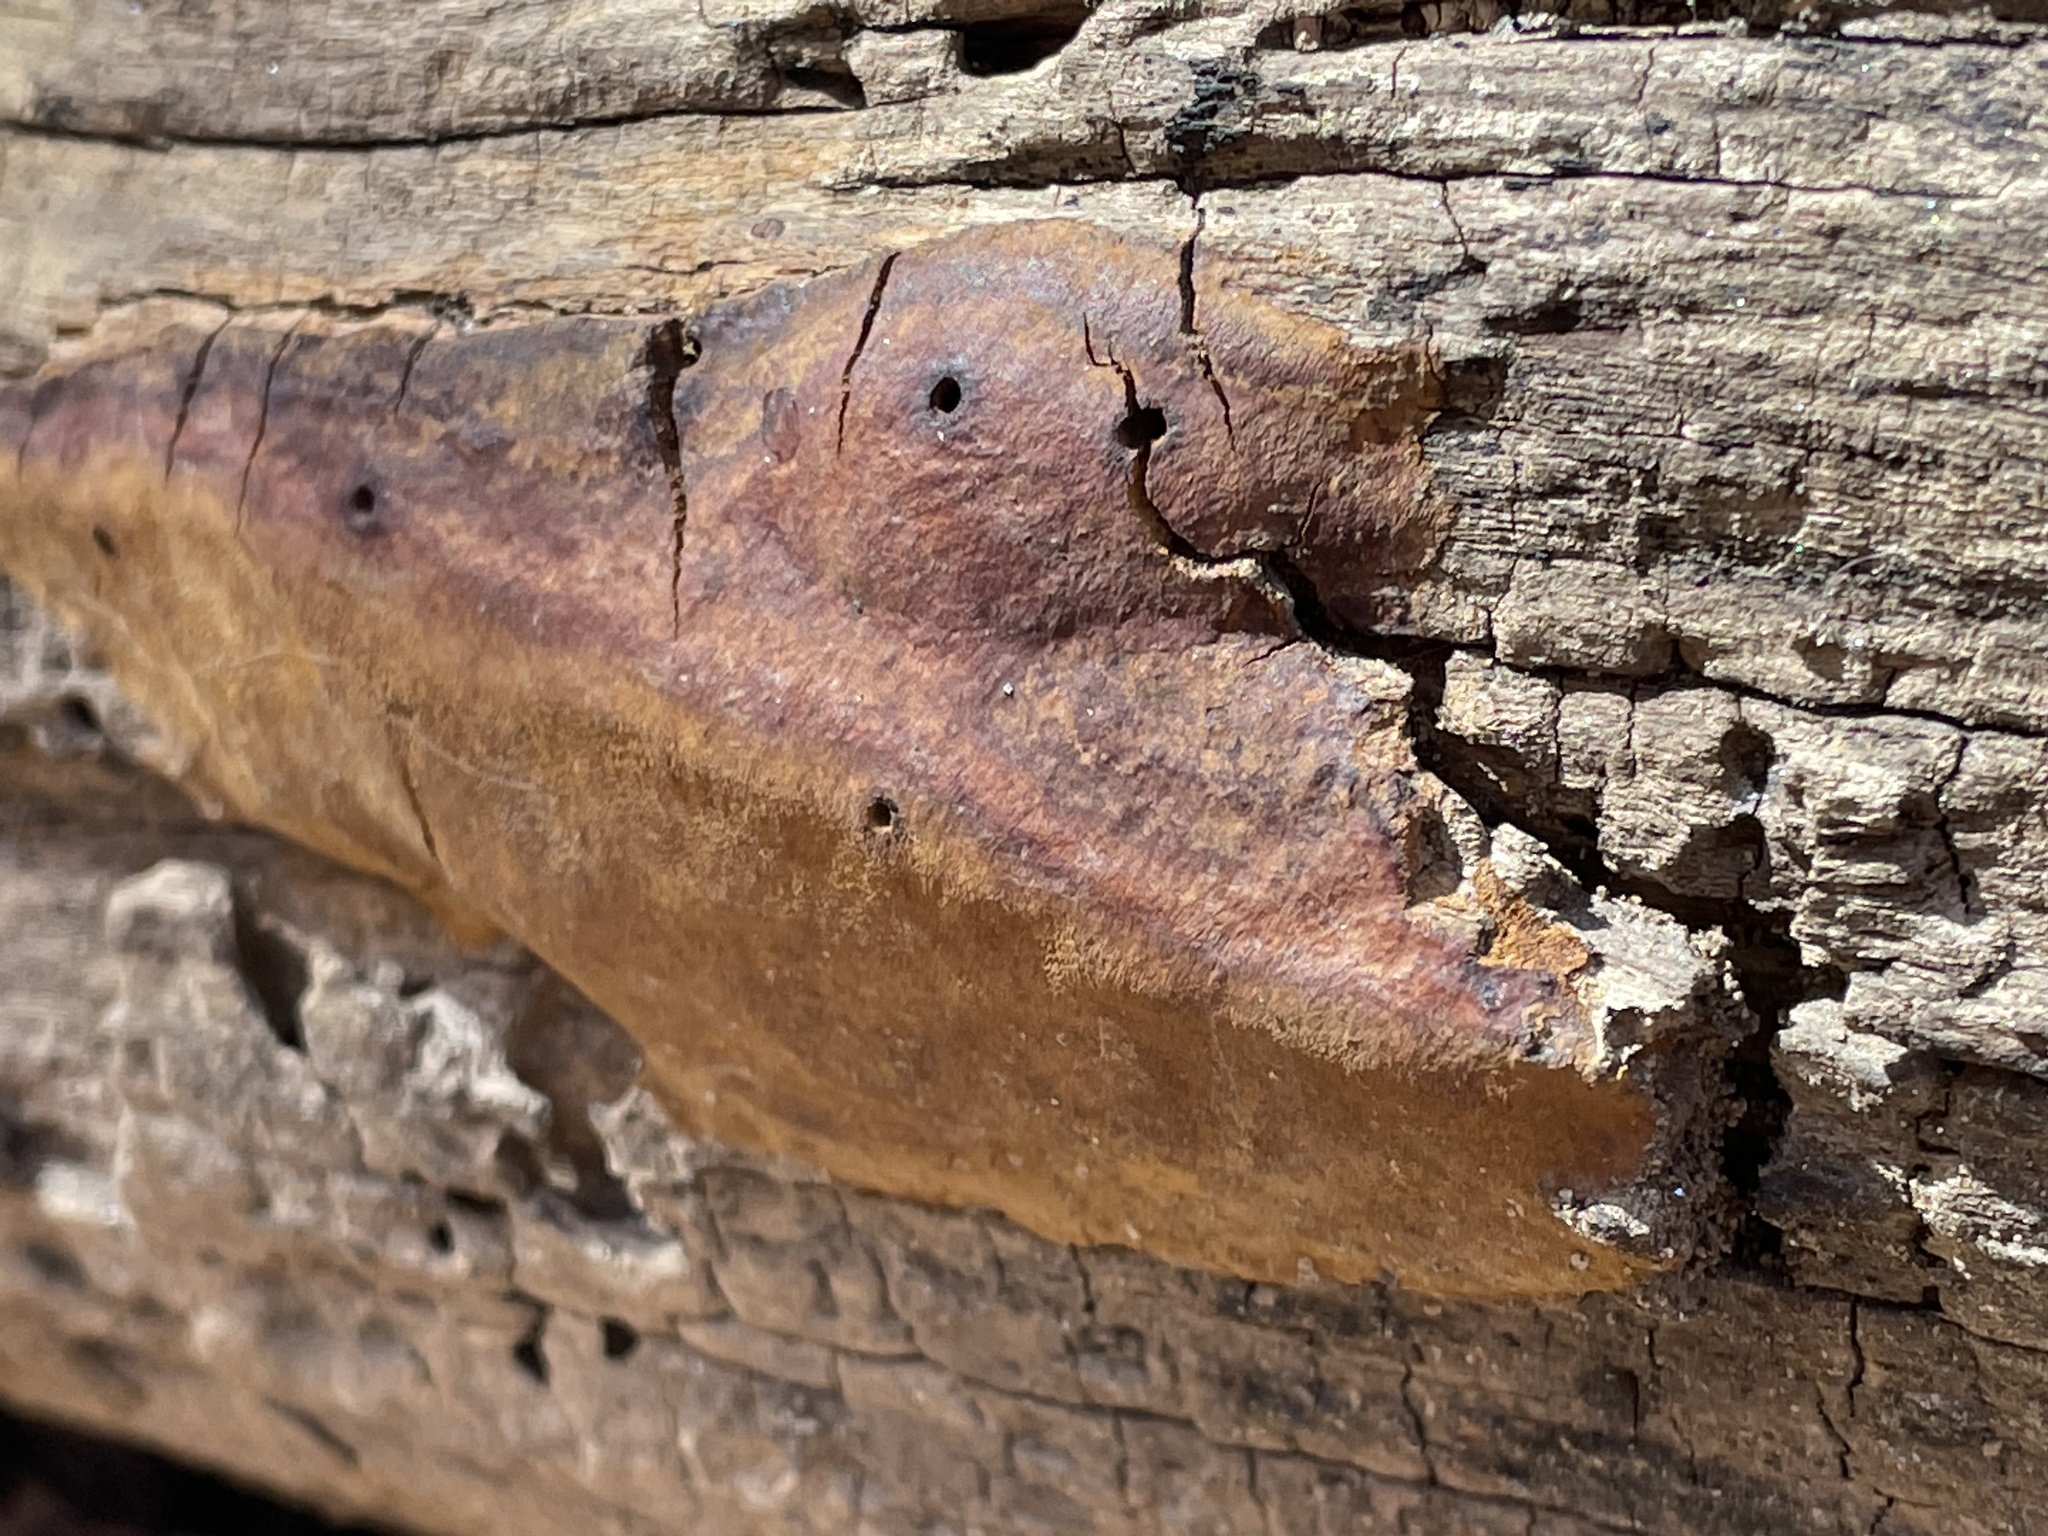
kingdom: Fungi
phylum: Basidiomycota
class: Agaricomycetes
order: Hymenochaetales
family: Hymenochaetaceae
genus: Fomitiporia
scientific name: Fomitiporia punctata
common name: Elbowpatch crust
